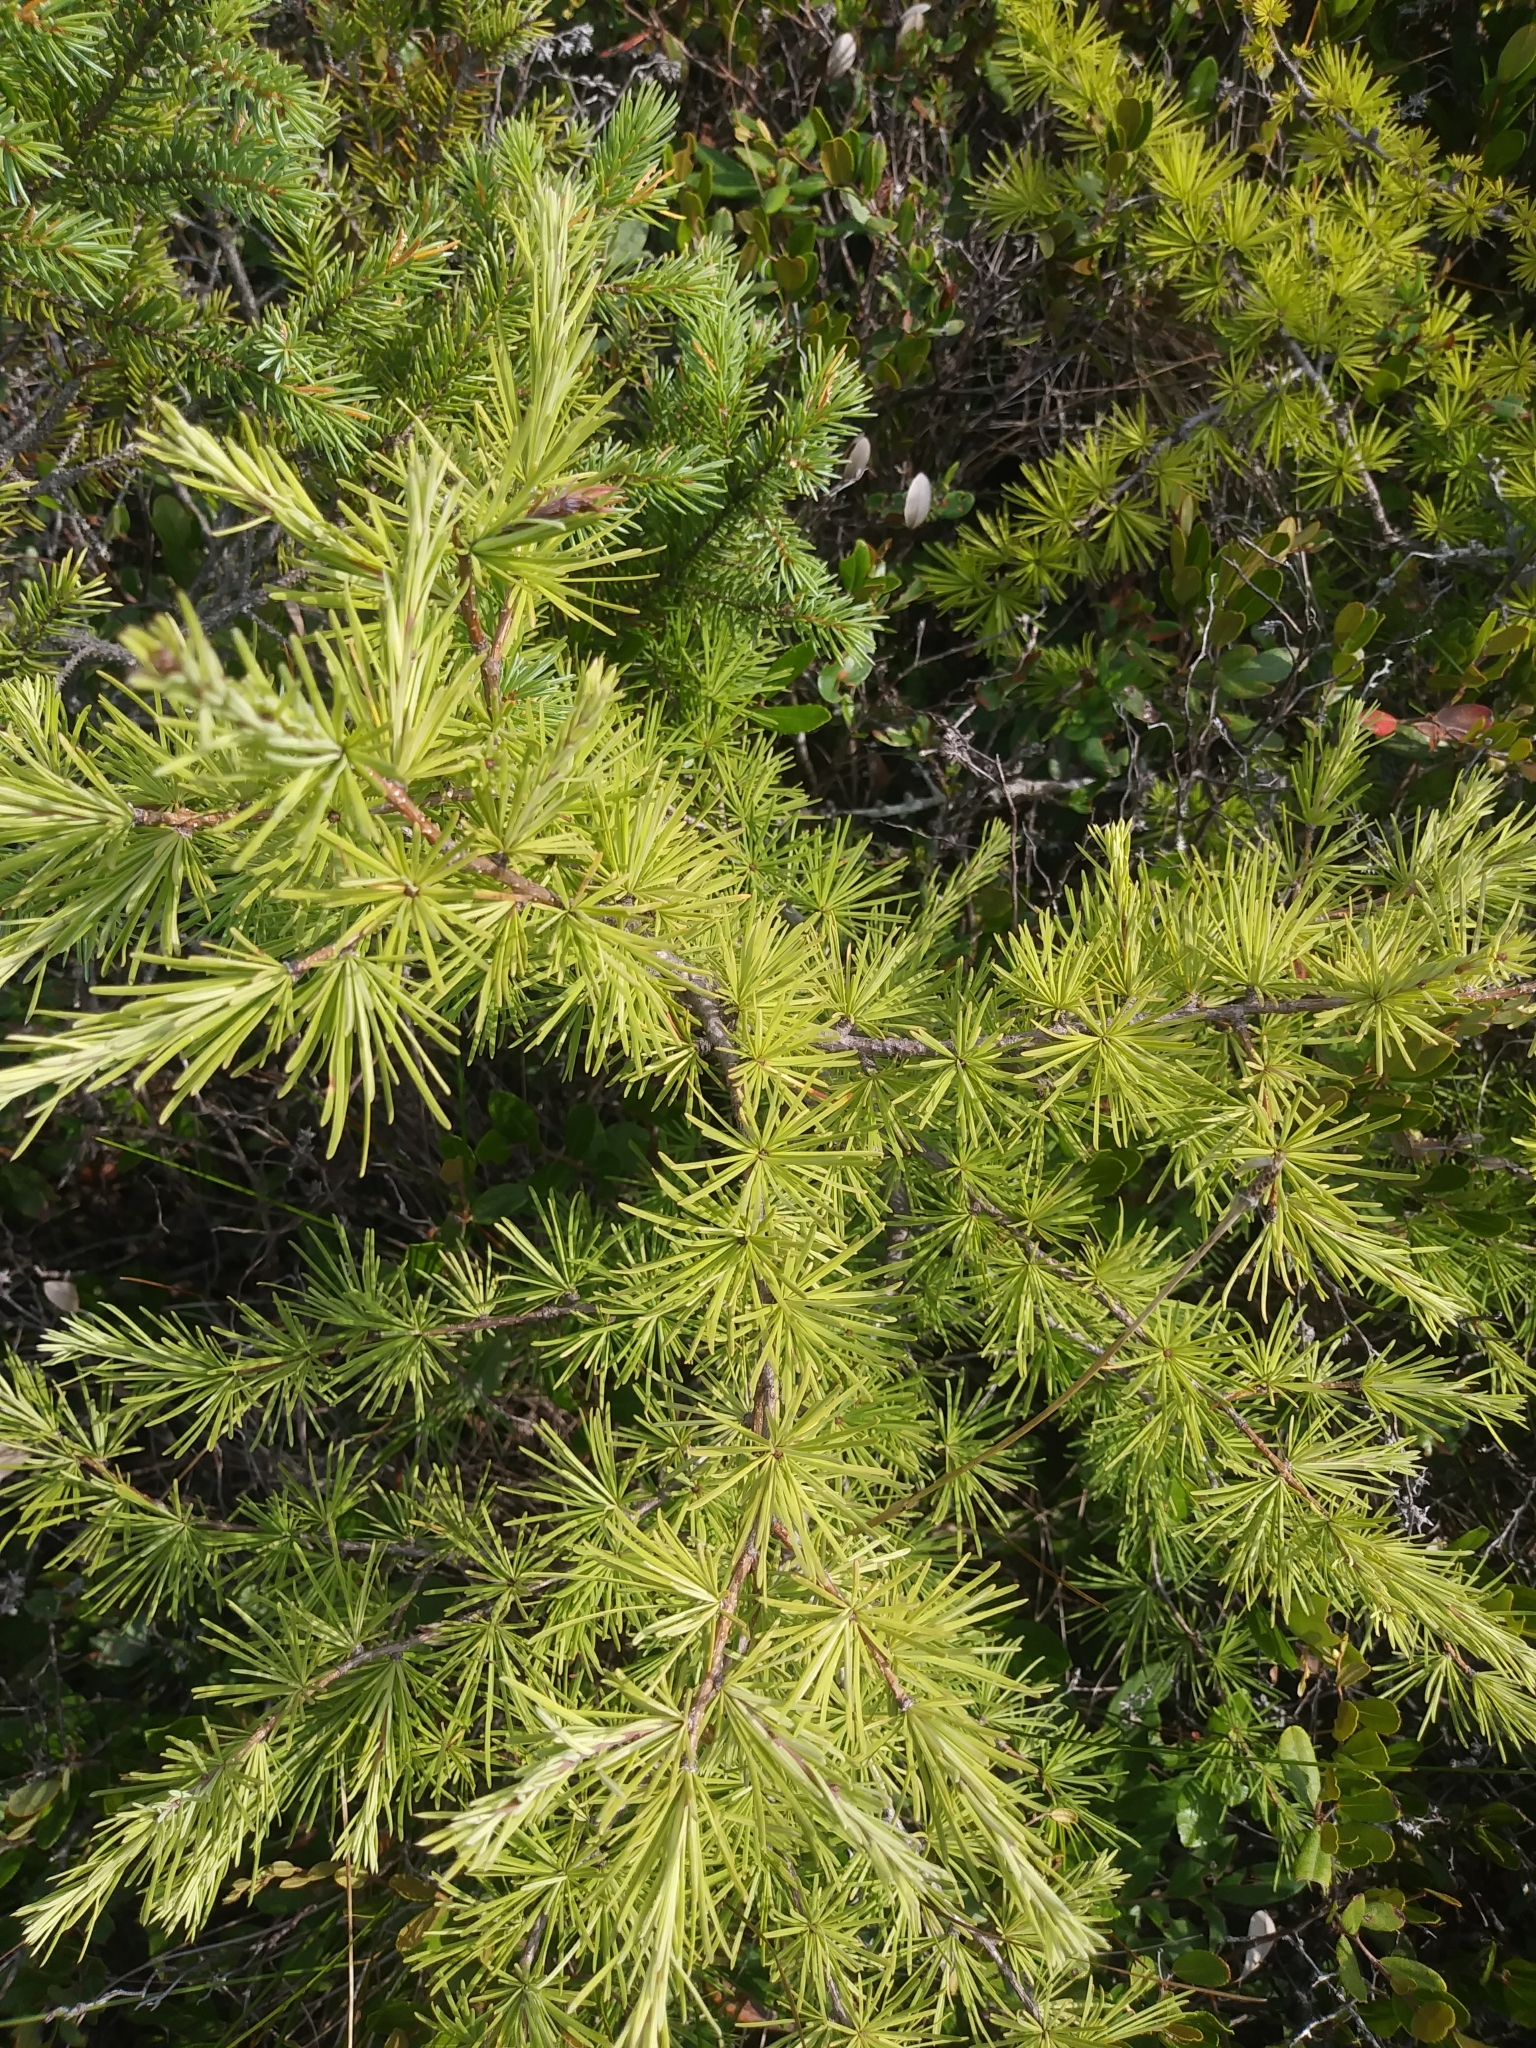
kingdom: Plantae
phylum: Tracheophyta
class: Pinopsida
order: Pinales
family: Pinaceae
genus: Larix
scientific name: Larix laricina
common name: American larch
